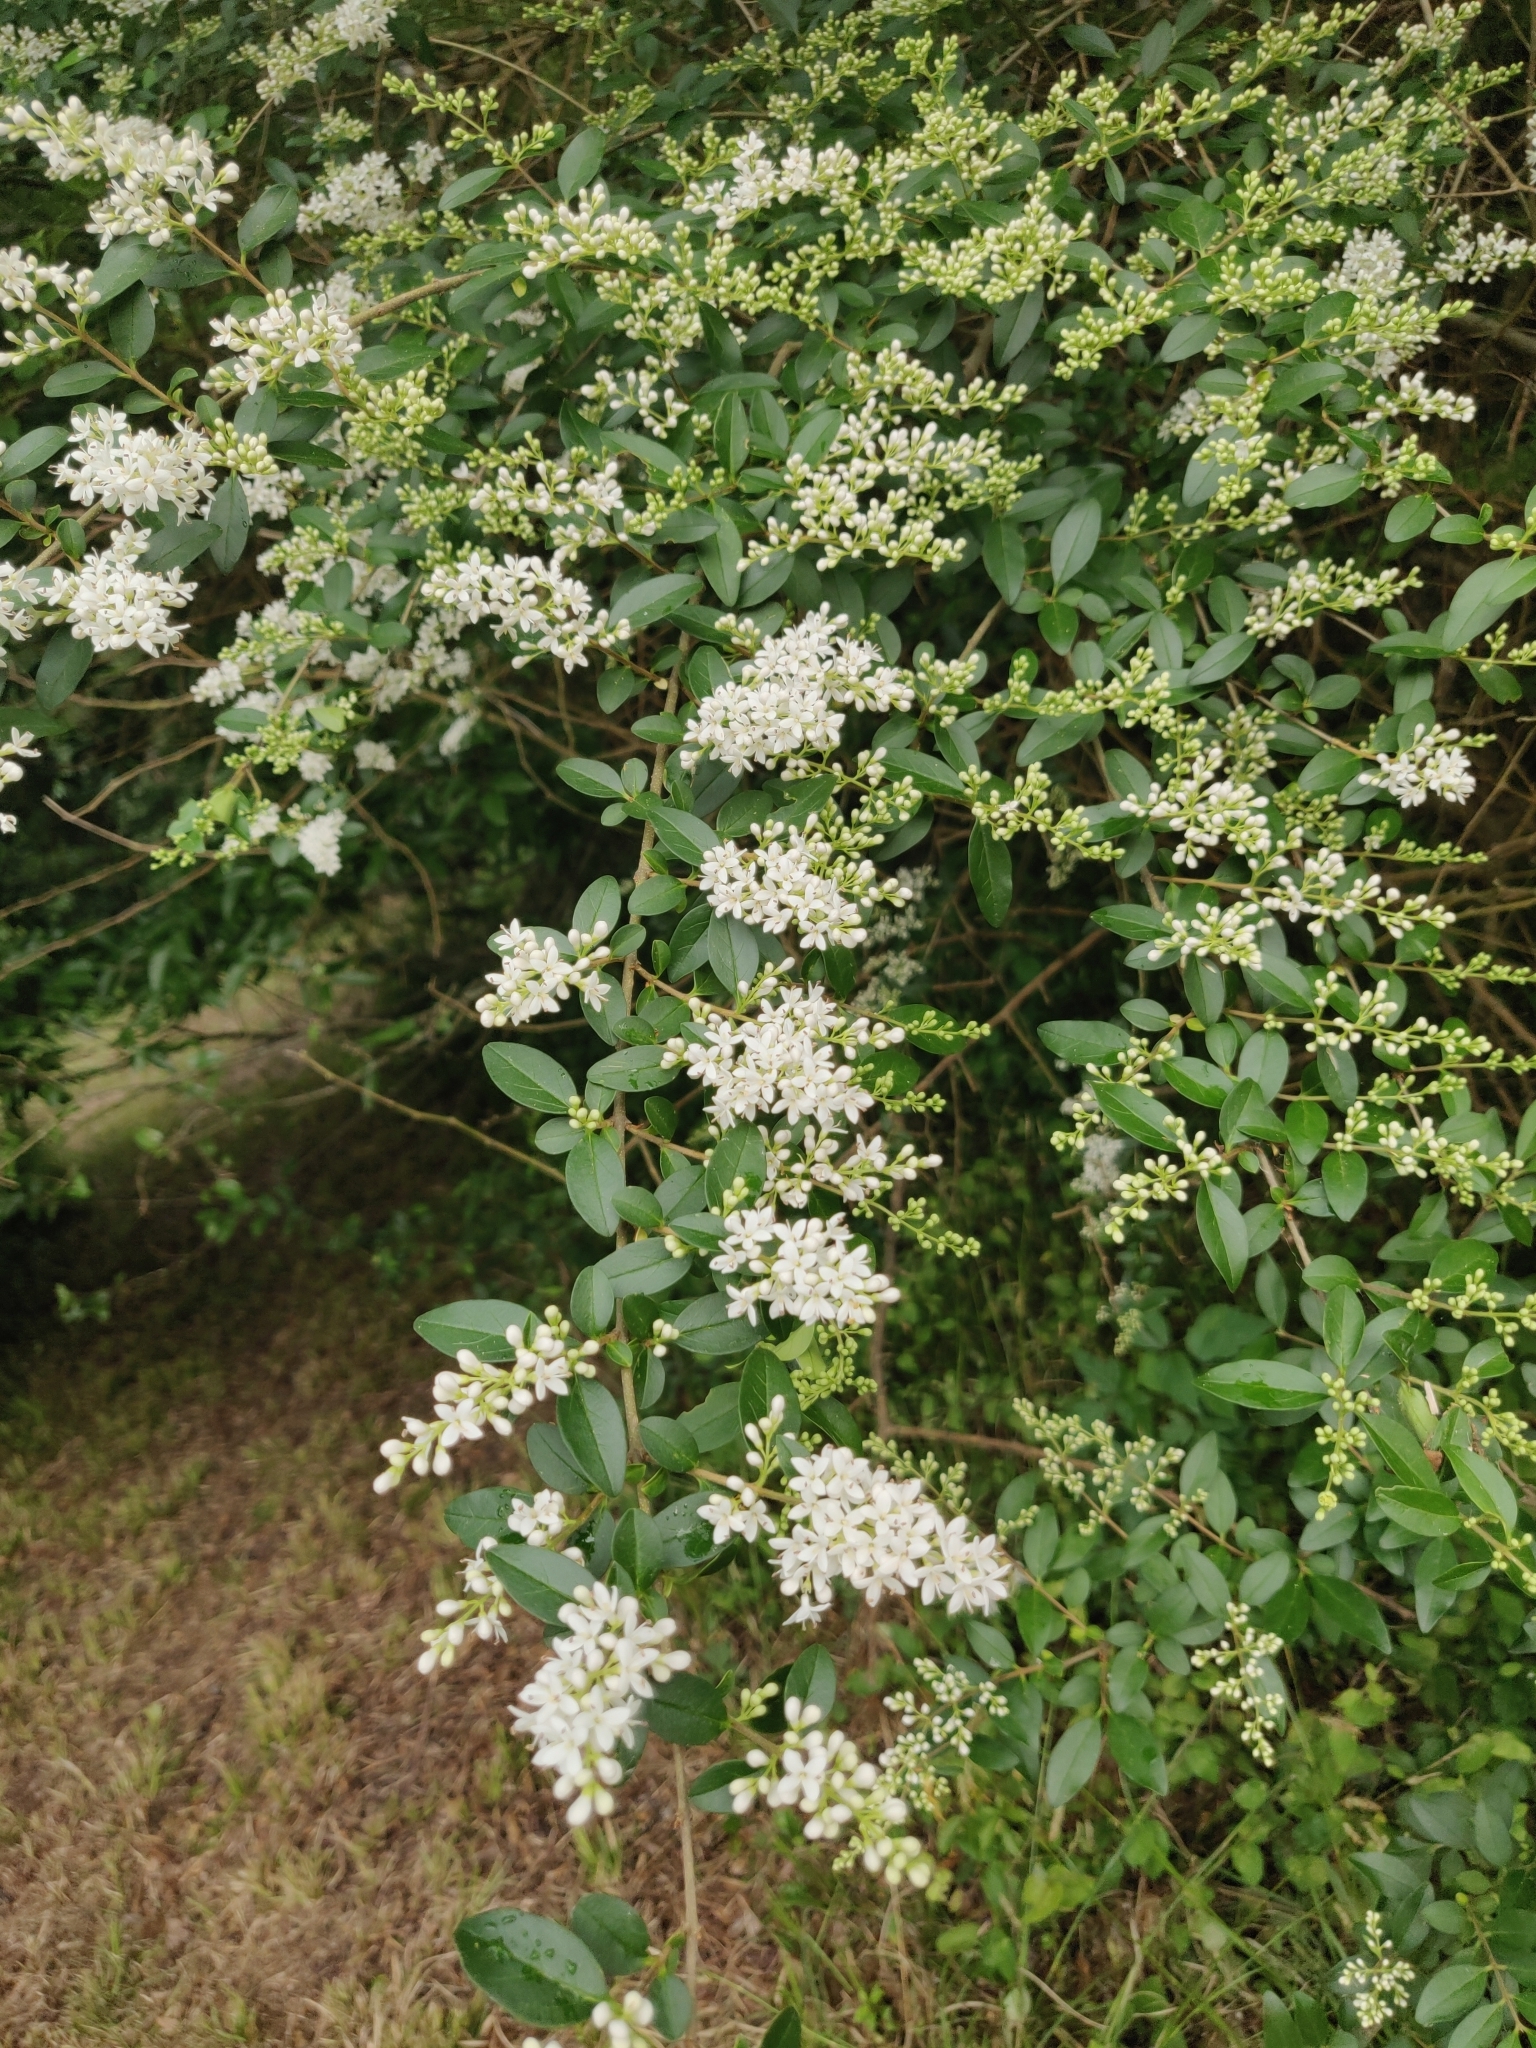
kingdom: Plantae
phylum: Tracheophyta
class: Magnoliopsida
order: Lamiales
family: Oleaceae
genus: Ligustrum
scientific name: Ligustrum sinense
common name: Chinese privet
